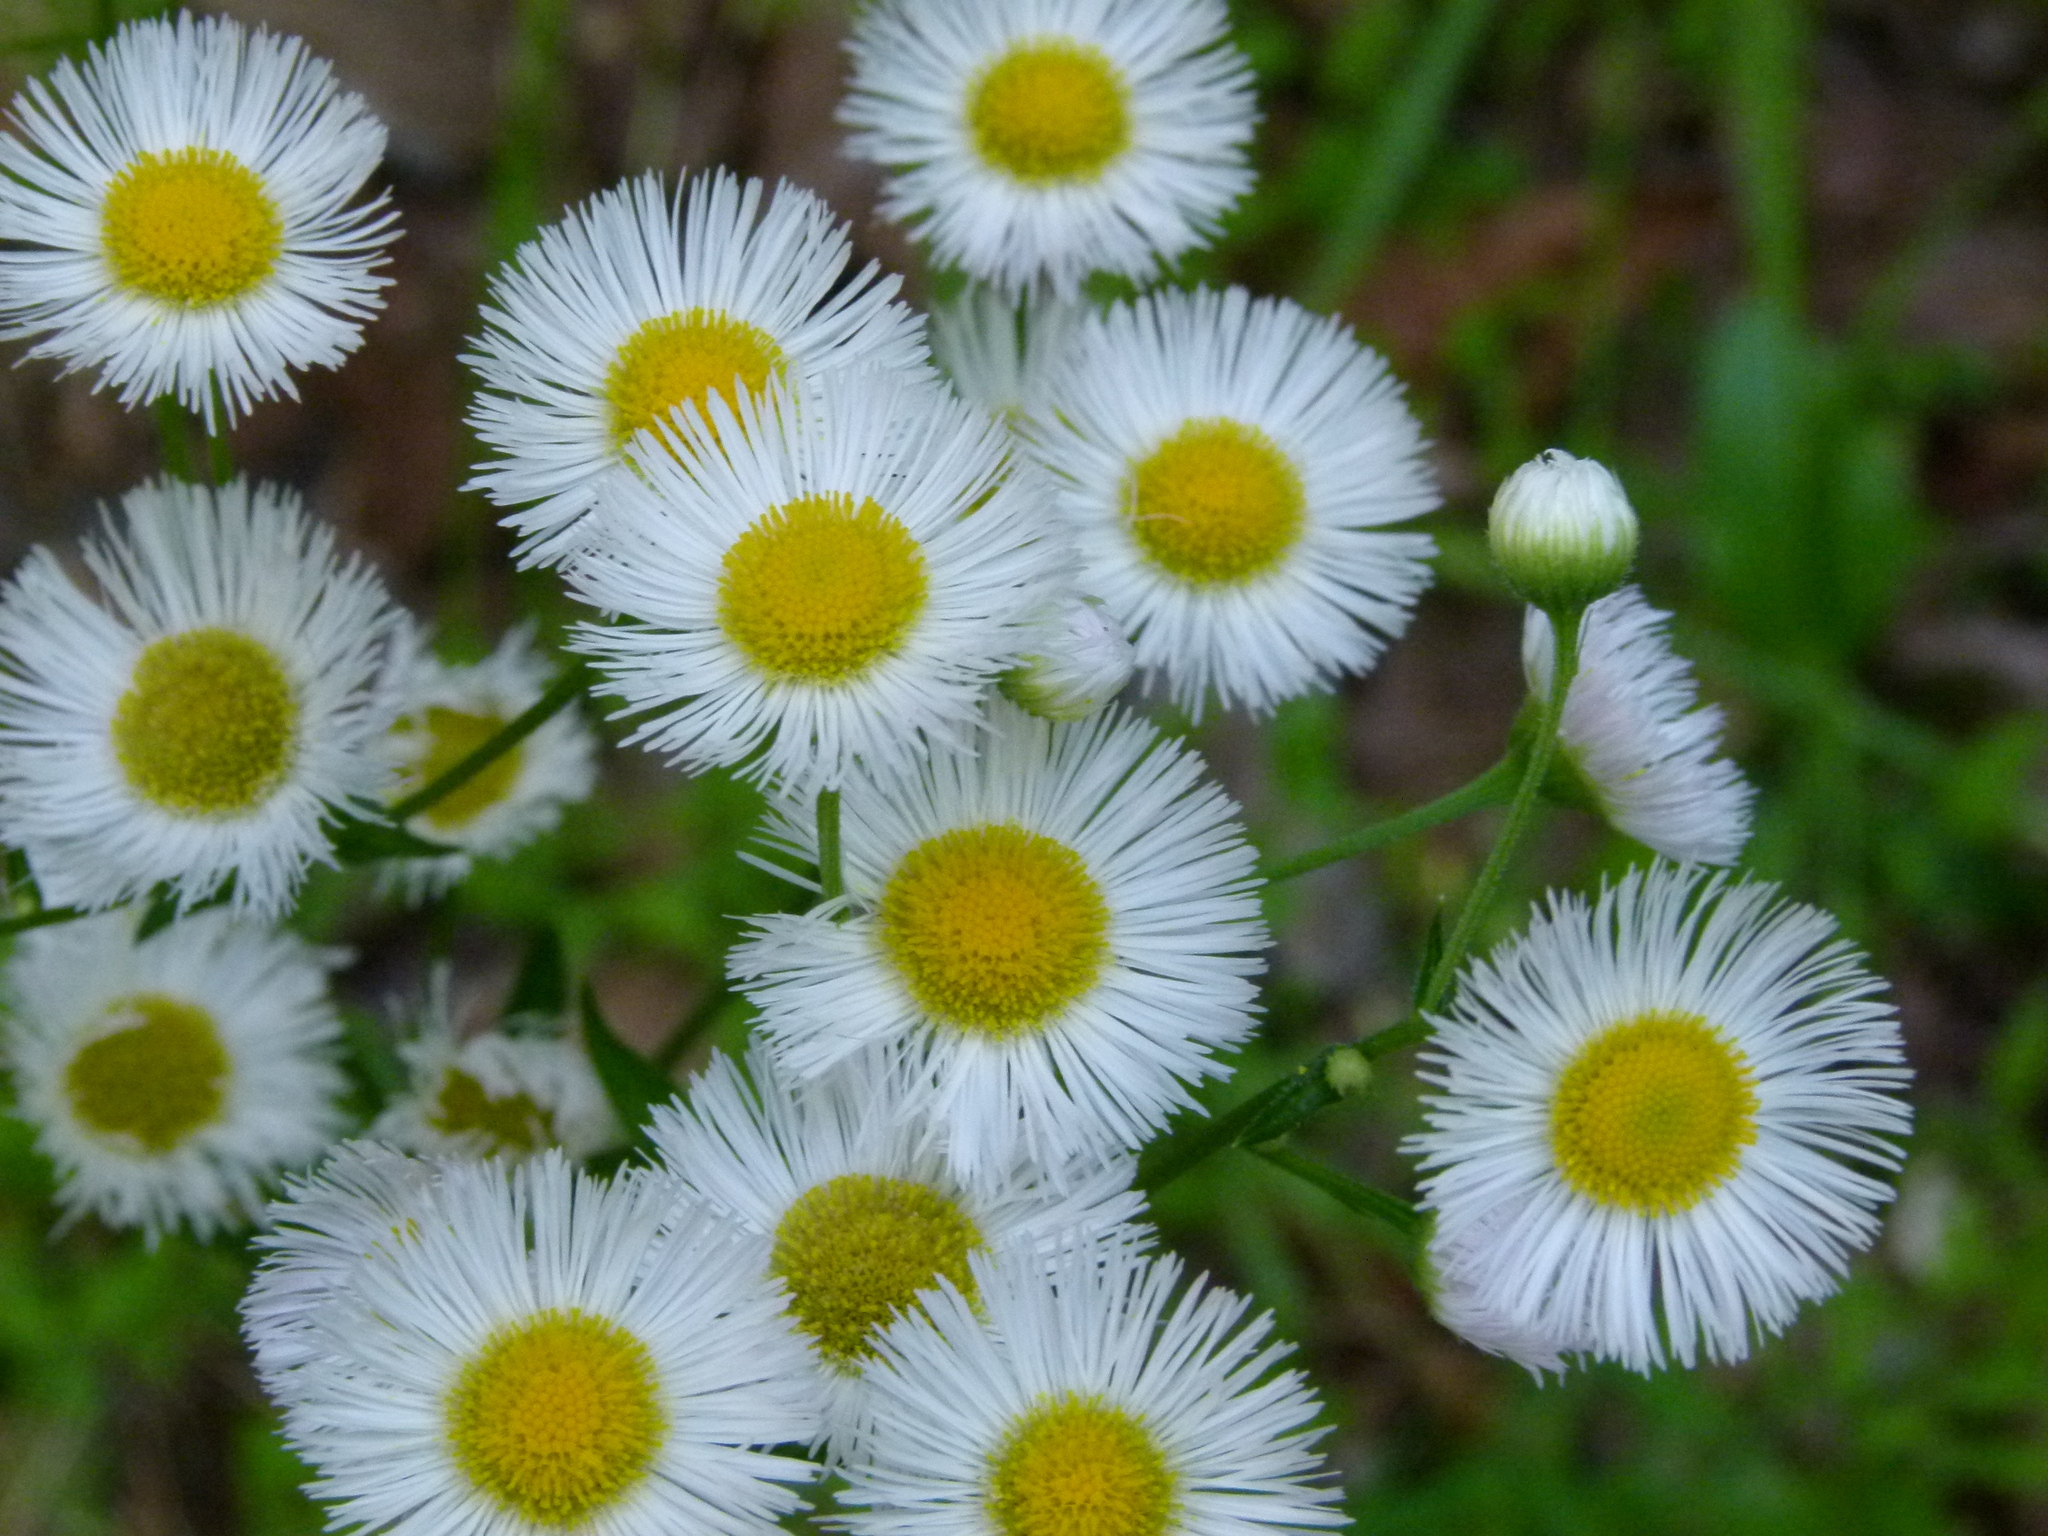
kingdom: Plantae
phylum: Tracheophyta
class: Magnoliopsida
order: Asterales
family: Asteraceae
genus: Erigeron
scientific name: Erigeron philadelphicus
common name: Robin's-plantain
